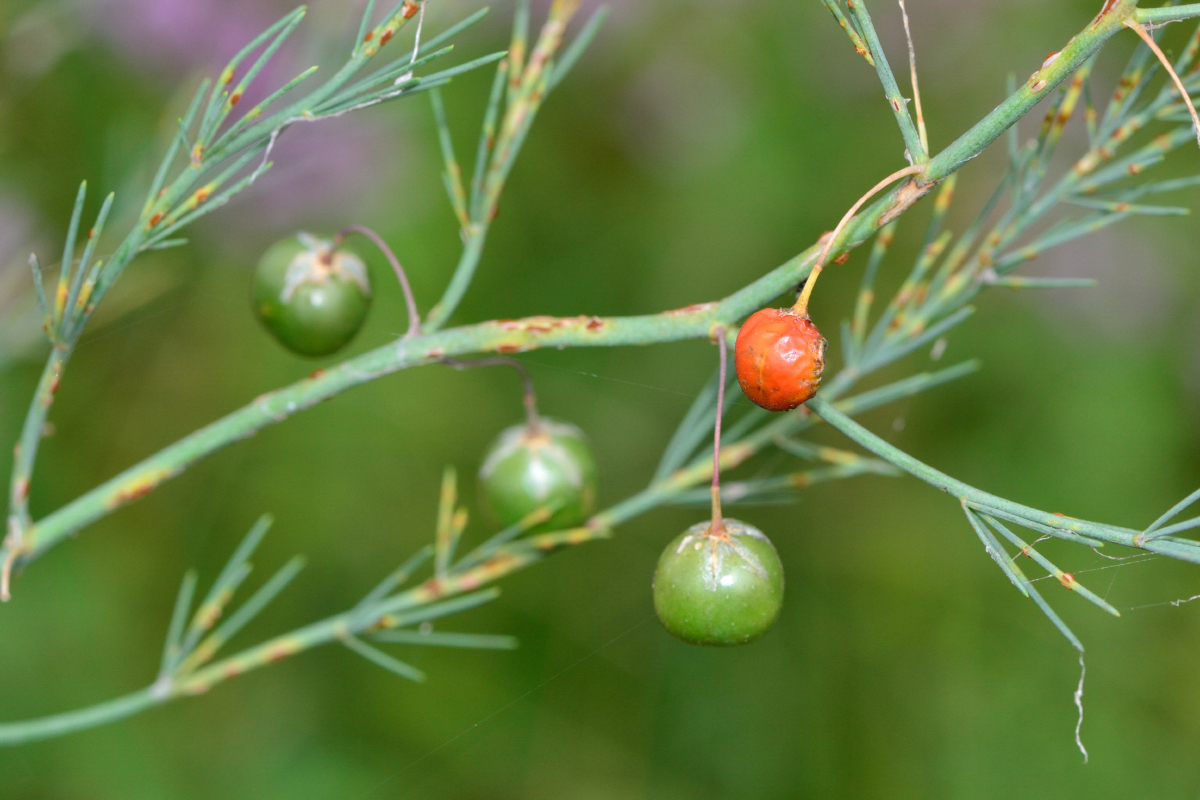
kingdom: Plantae
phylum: Tracheophyta
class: Liliopsida
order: Asparagales
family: Asparagaceae
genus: Asparagus
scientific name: Asparagus officinalis
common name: Garden asparagus
